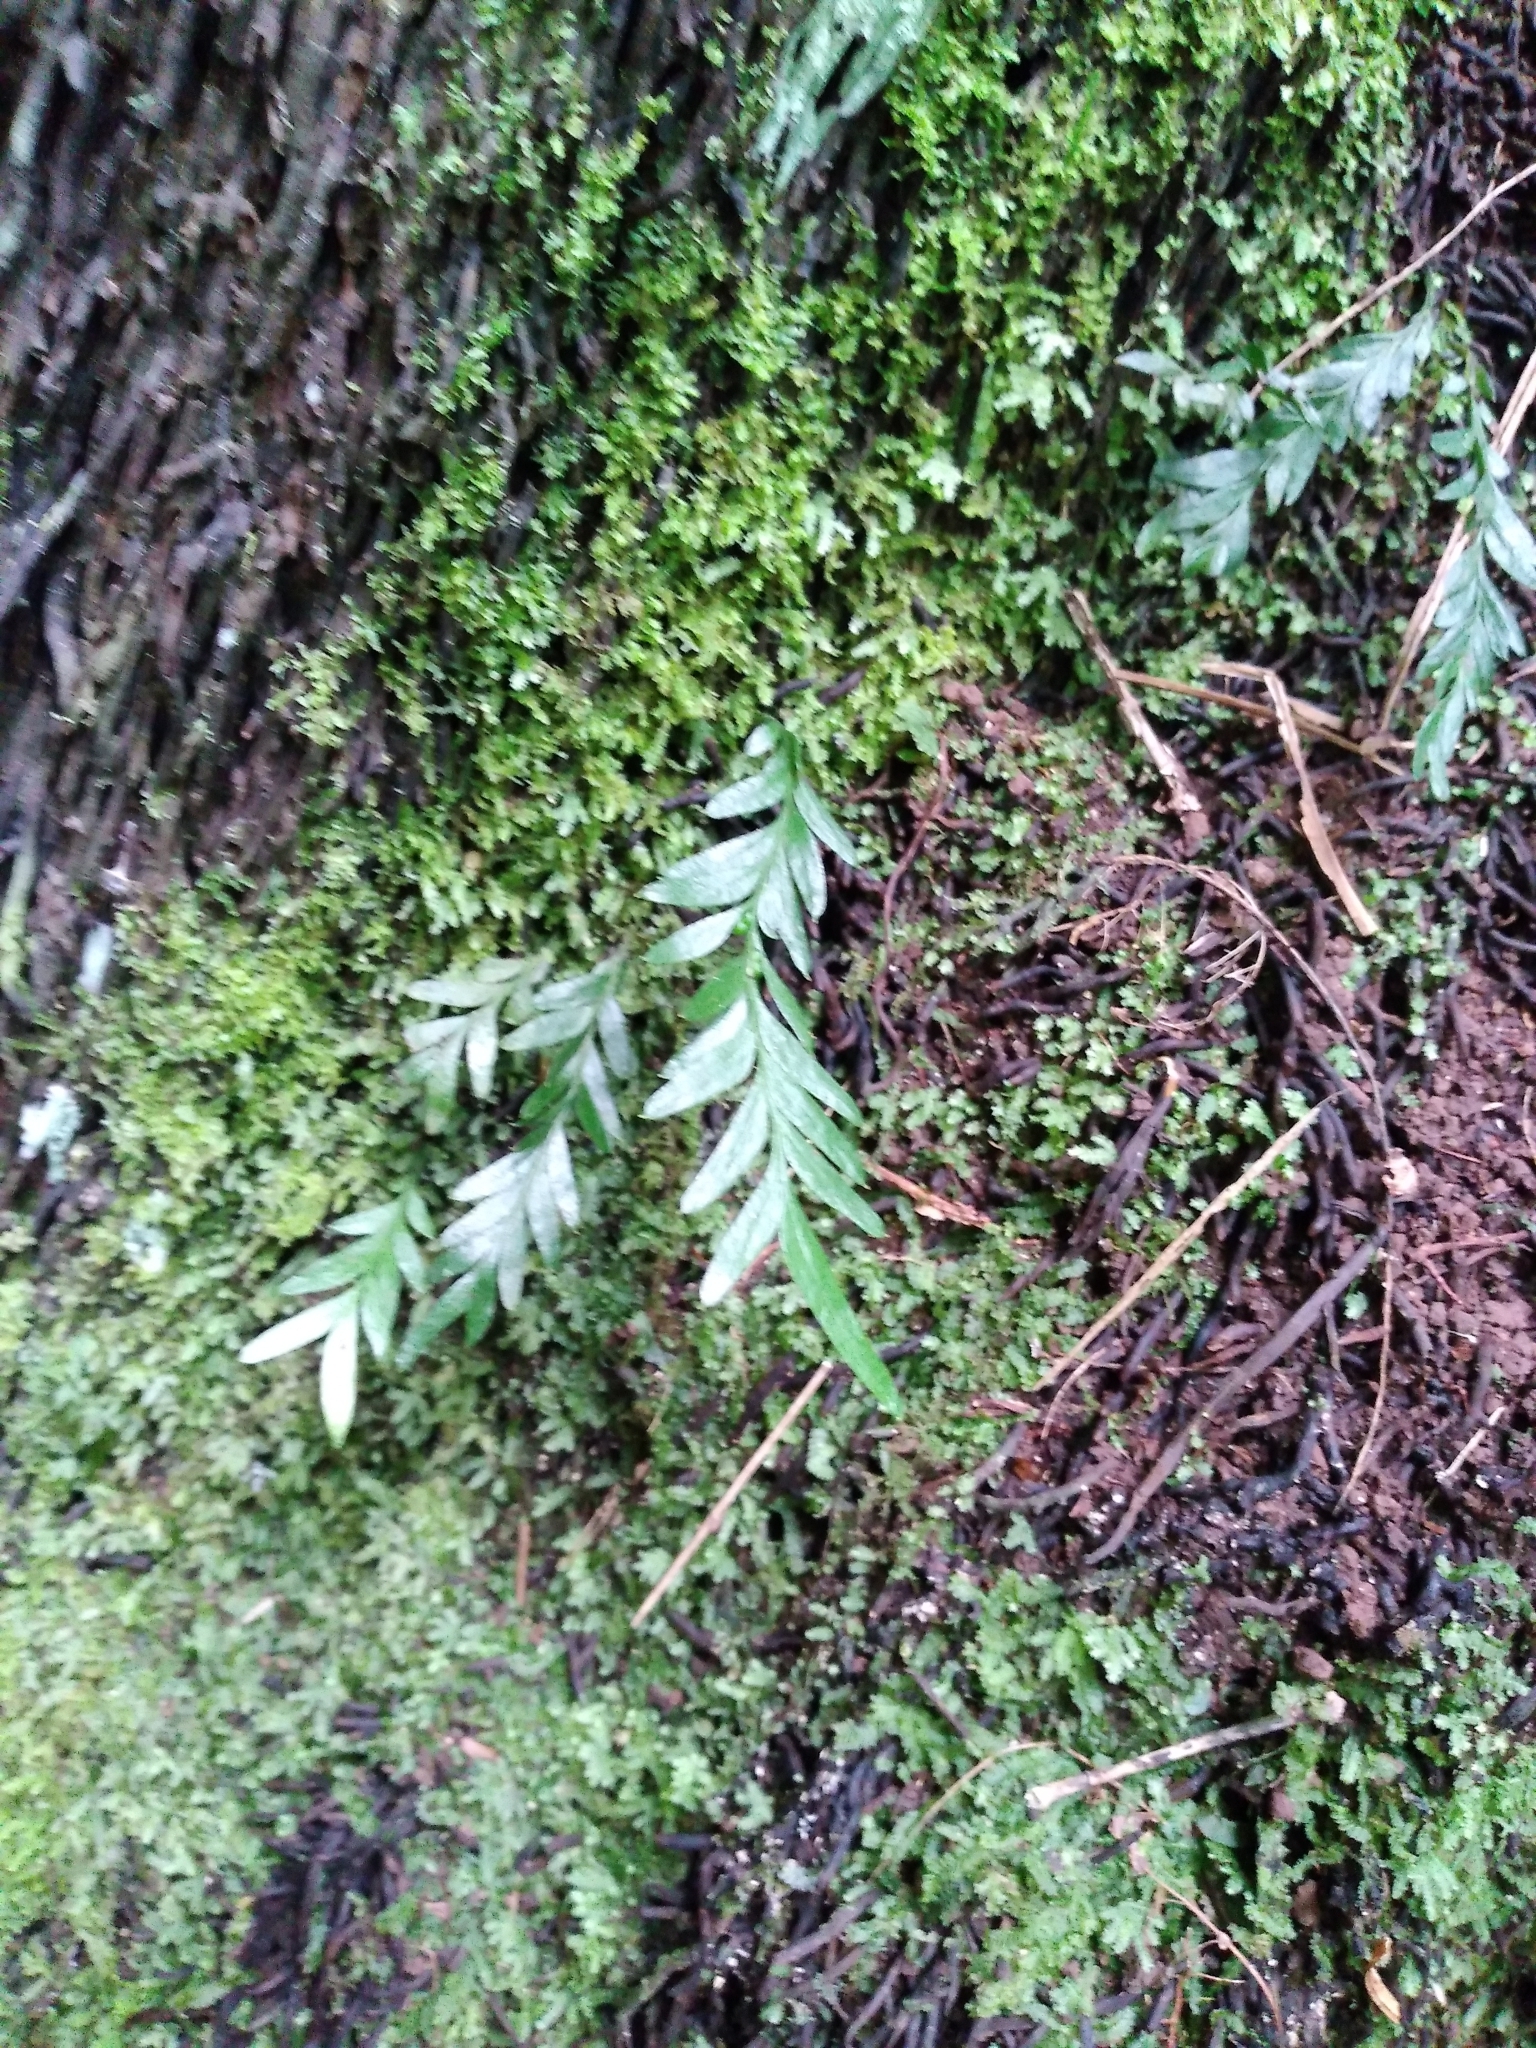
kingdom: Plantae
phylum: Tracheophyta
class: Polypodiopsida
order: Psilotales
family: Psilotaceae
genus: Tmesipteris
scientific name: Tmesipteris norfolkensis
